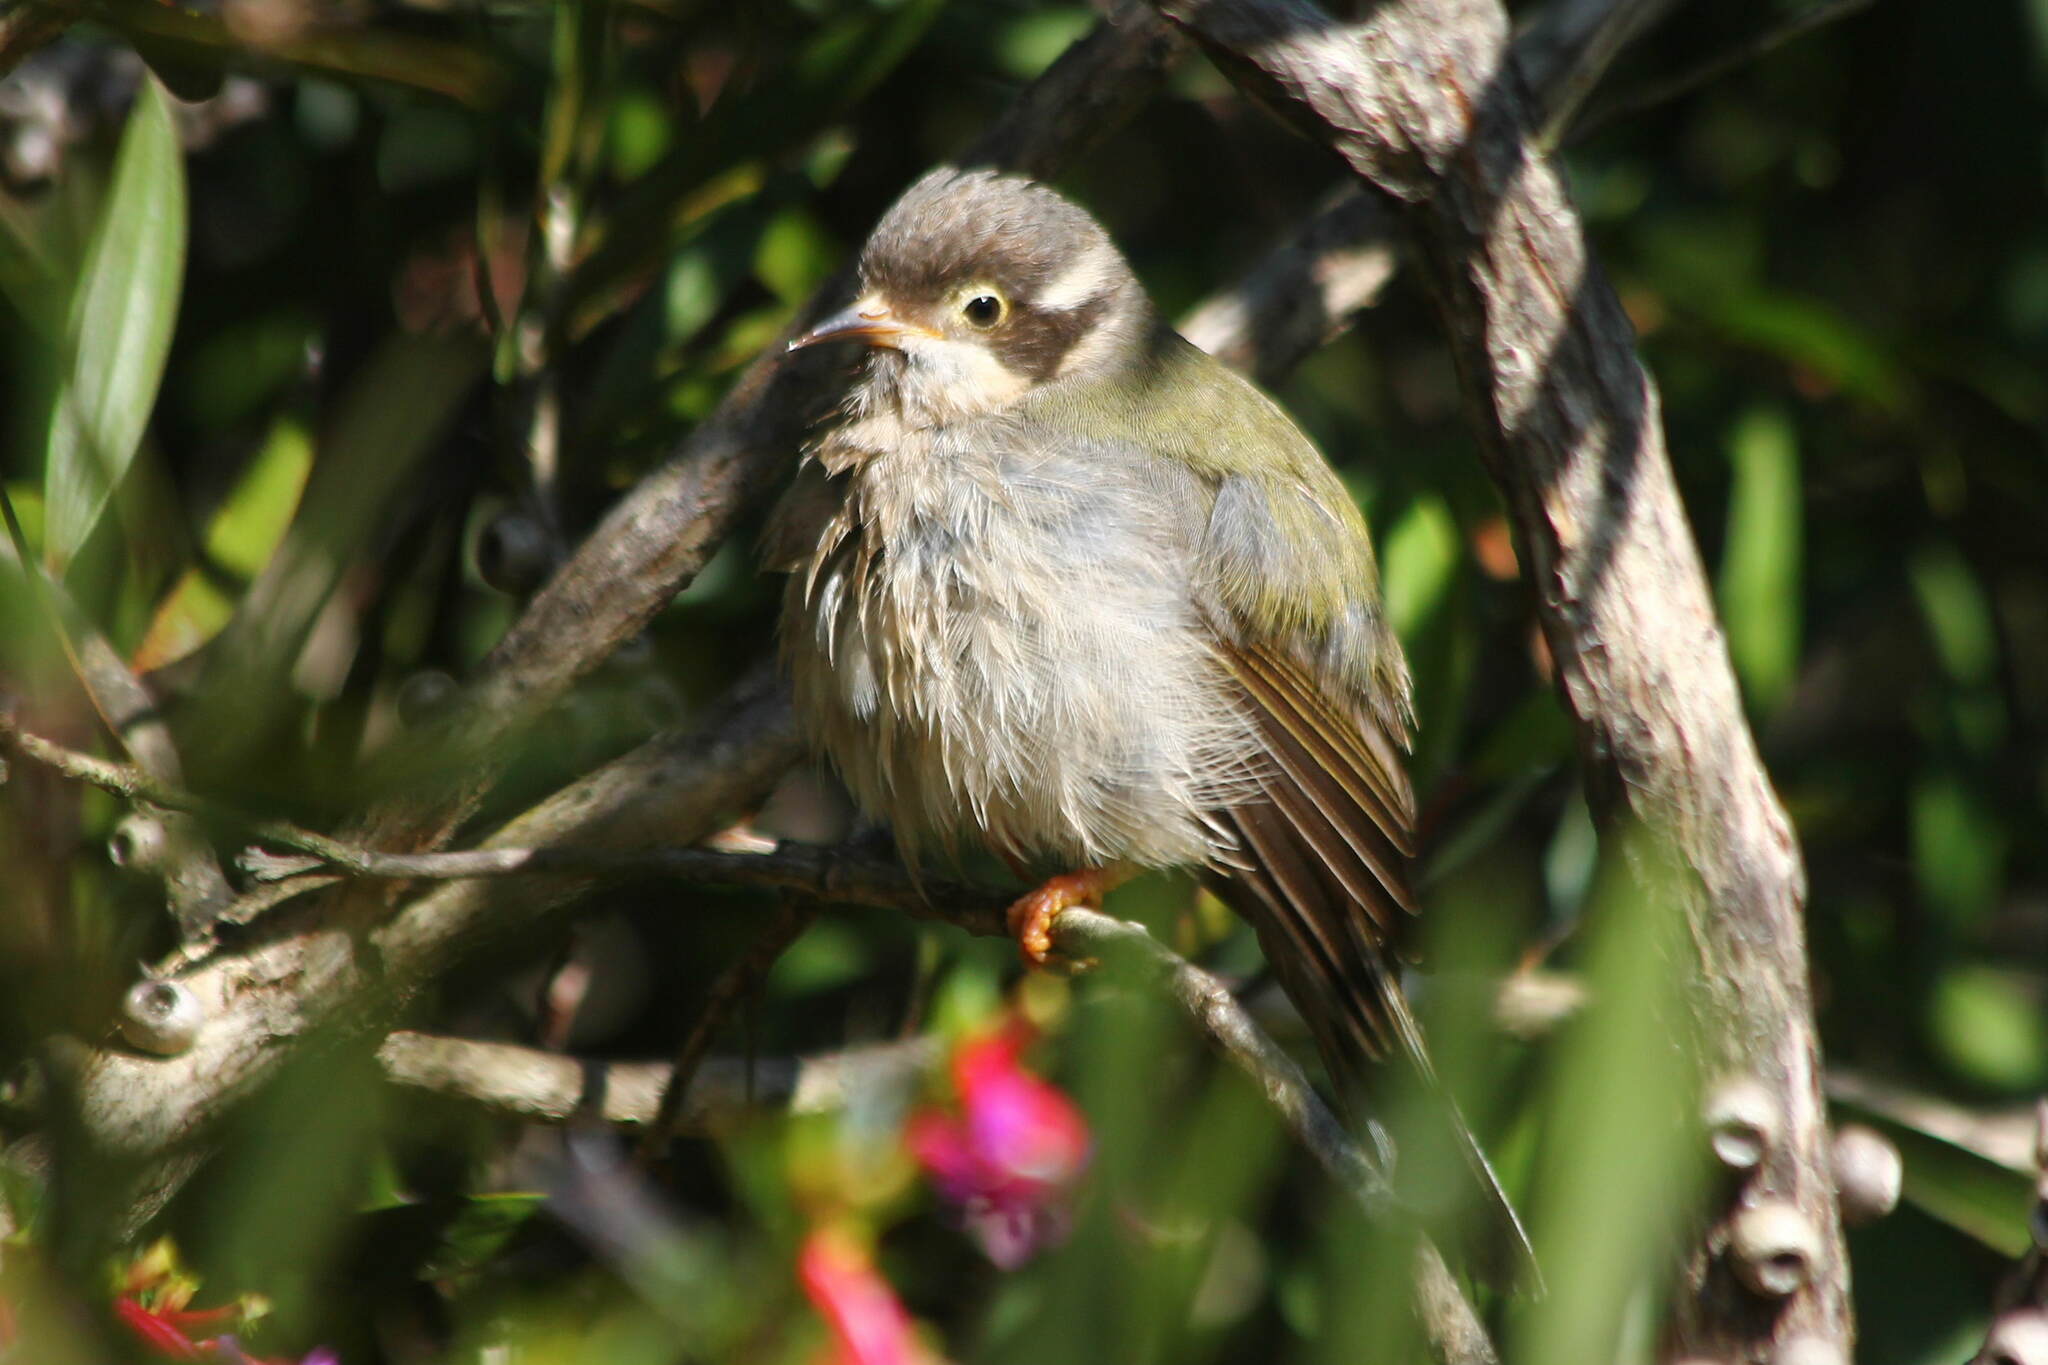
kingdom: Animalia
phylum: Chordata
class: Aves
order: Passeriformes
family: Meliphagidae
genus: Melithreptus
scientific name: Melithreptus brevirostris
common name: Brown-headed honeyeater
